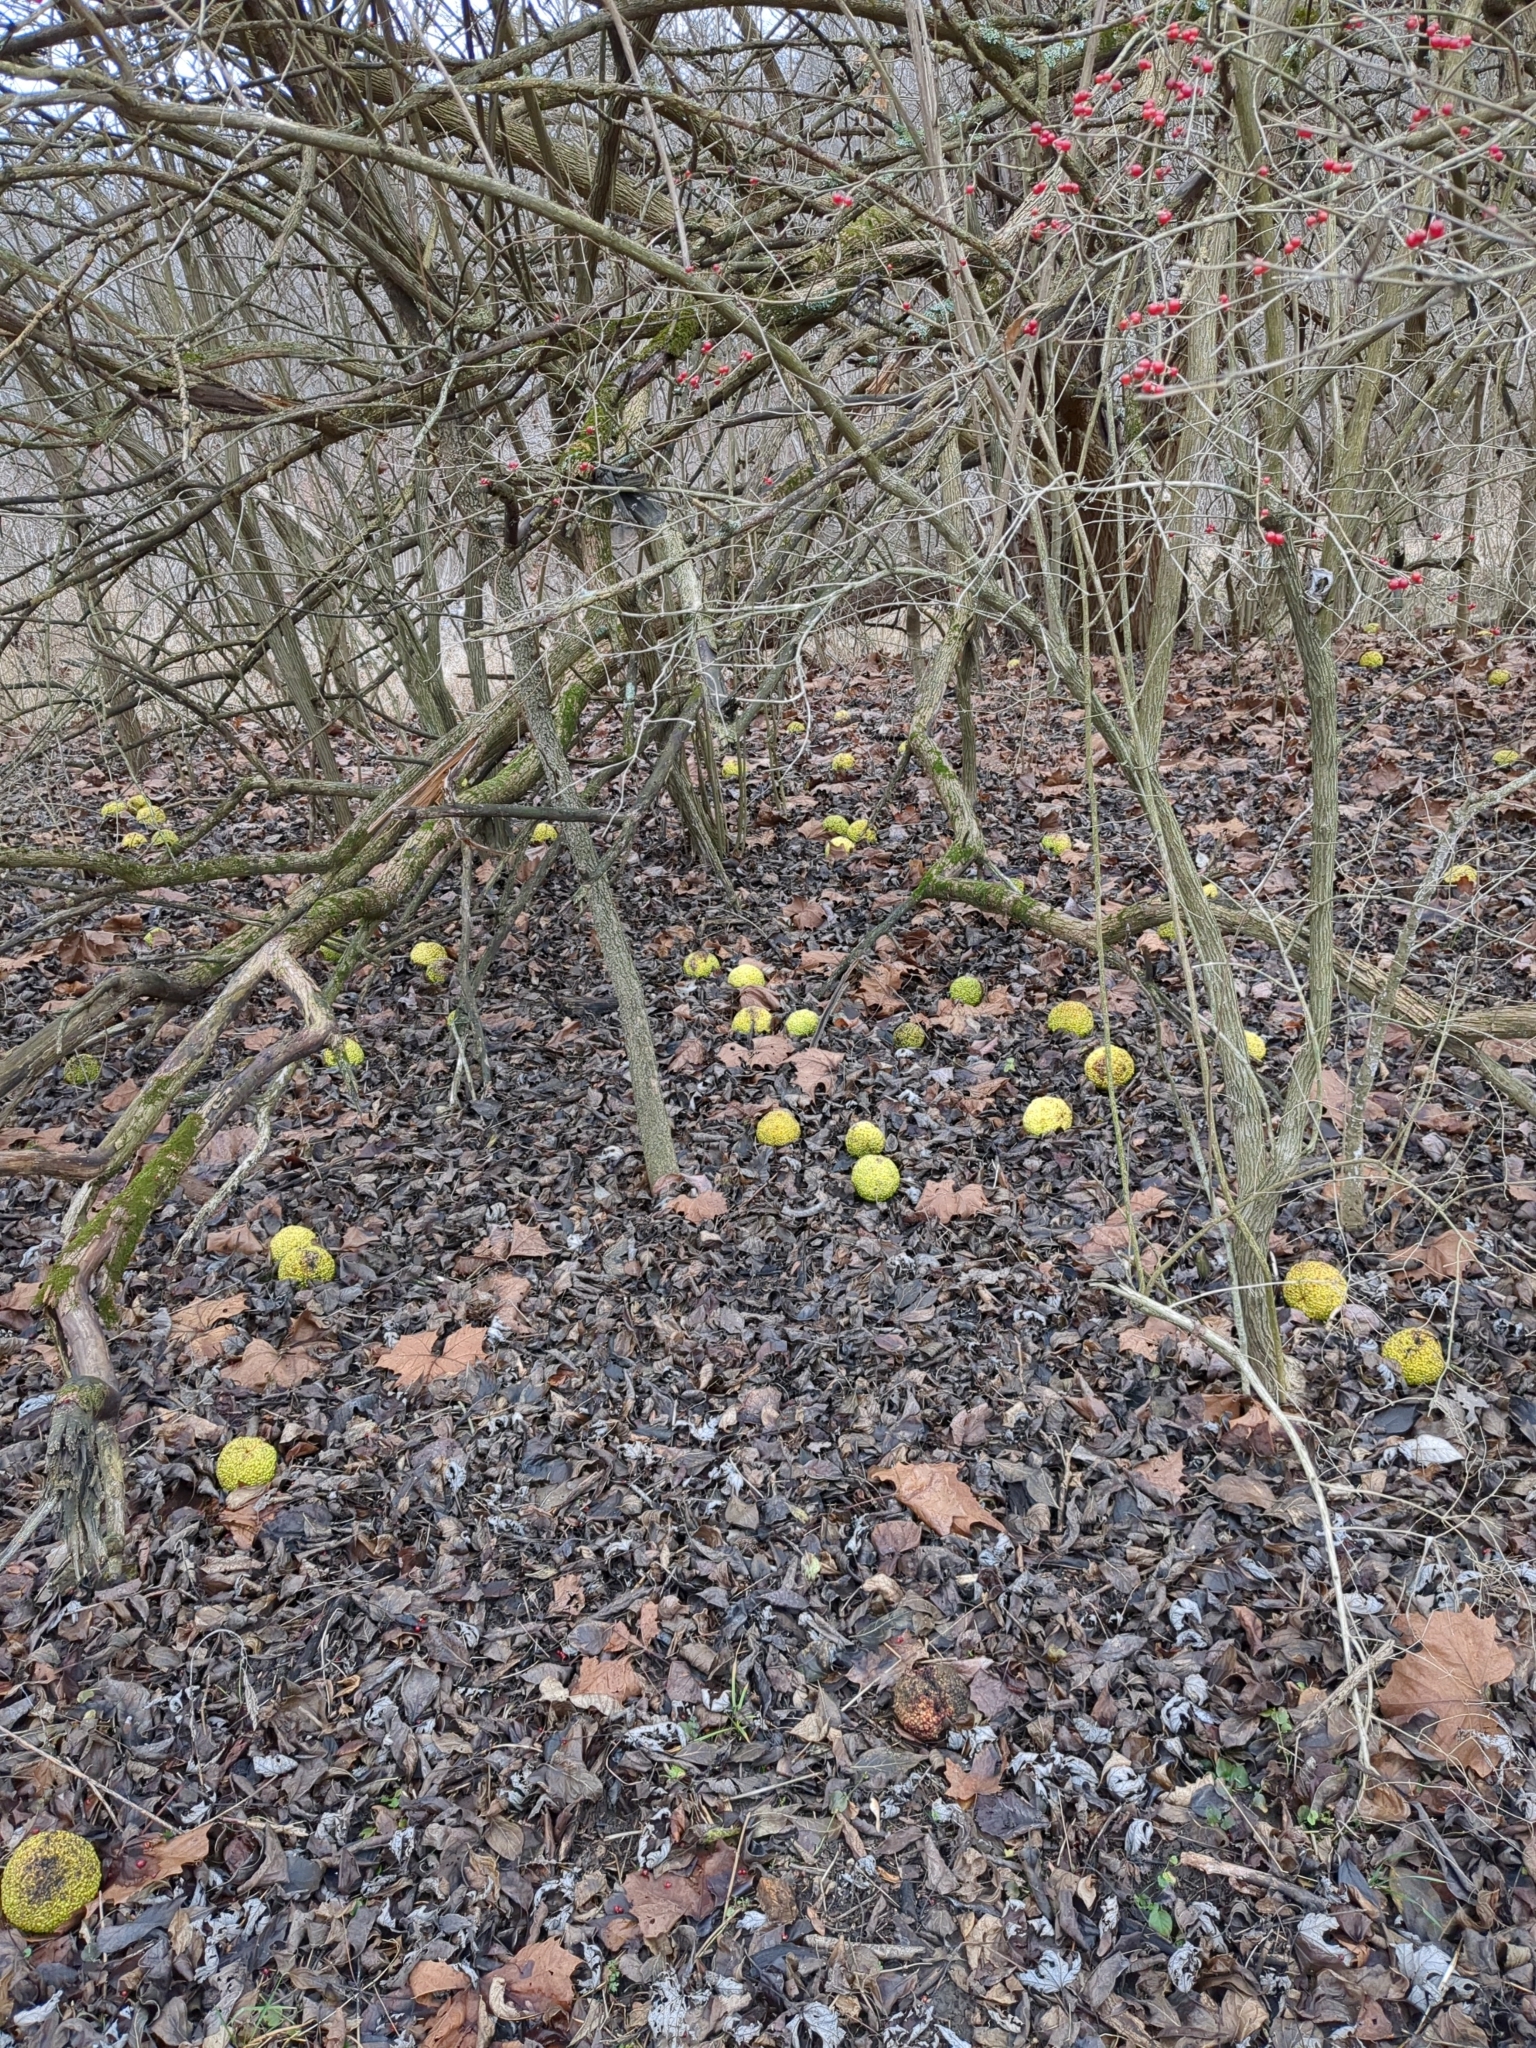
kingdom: Plantae
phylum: Tracheophyta
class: Magnoliopsida
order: Rosales
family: Moraceae
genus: Maclura
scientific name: Maclura pomifera
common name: Osage-orange
